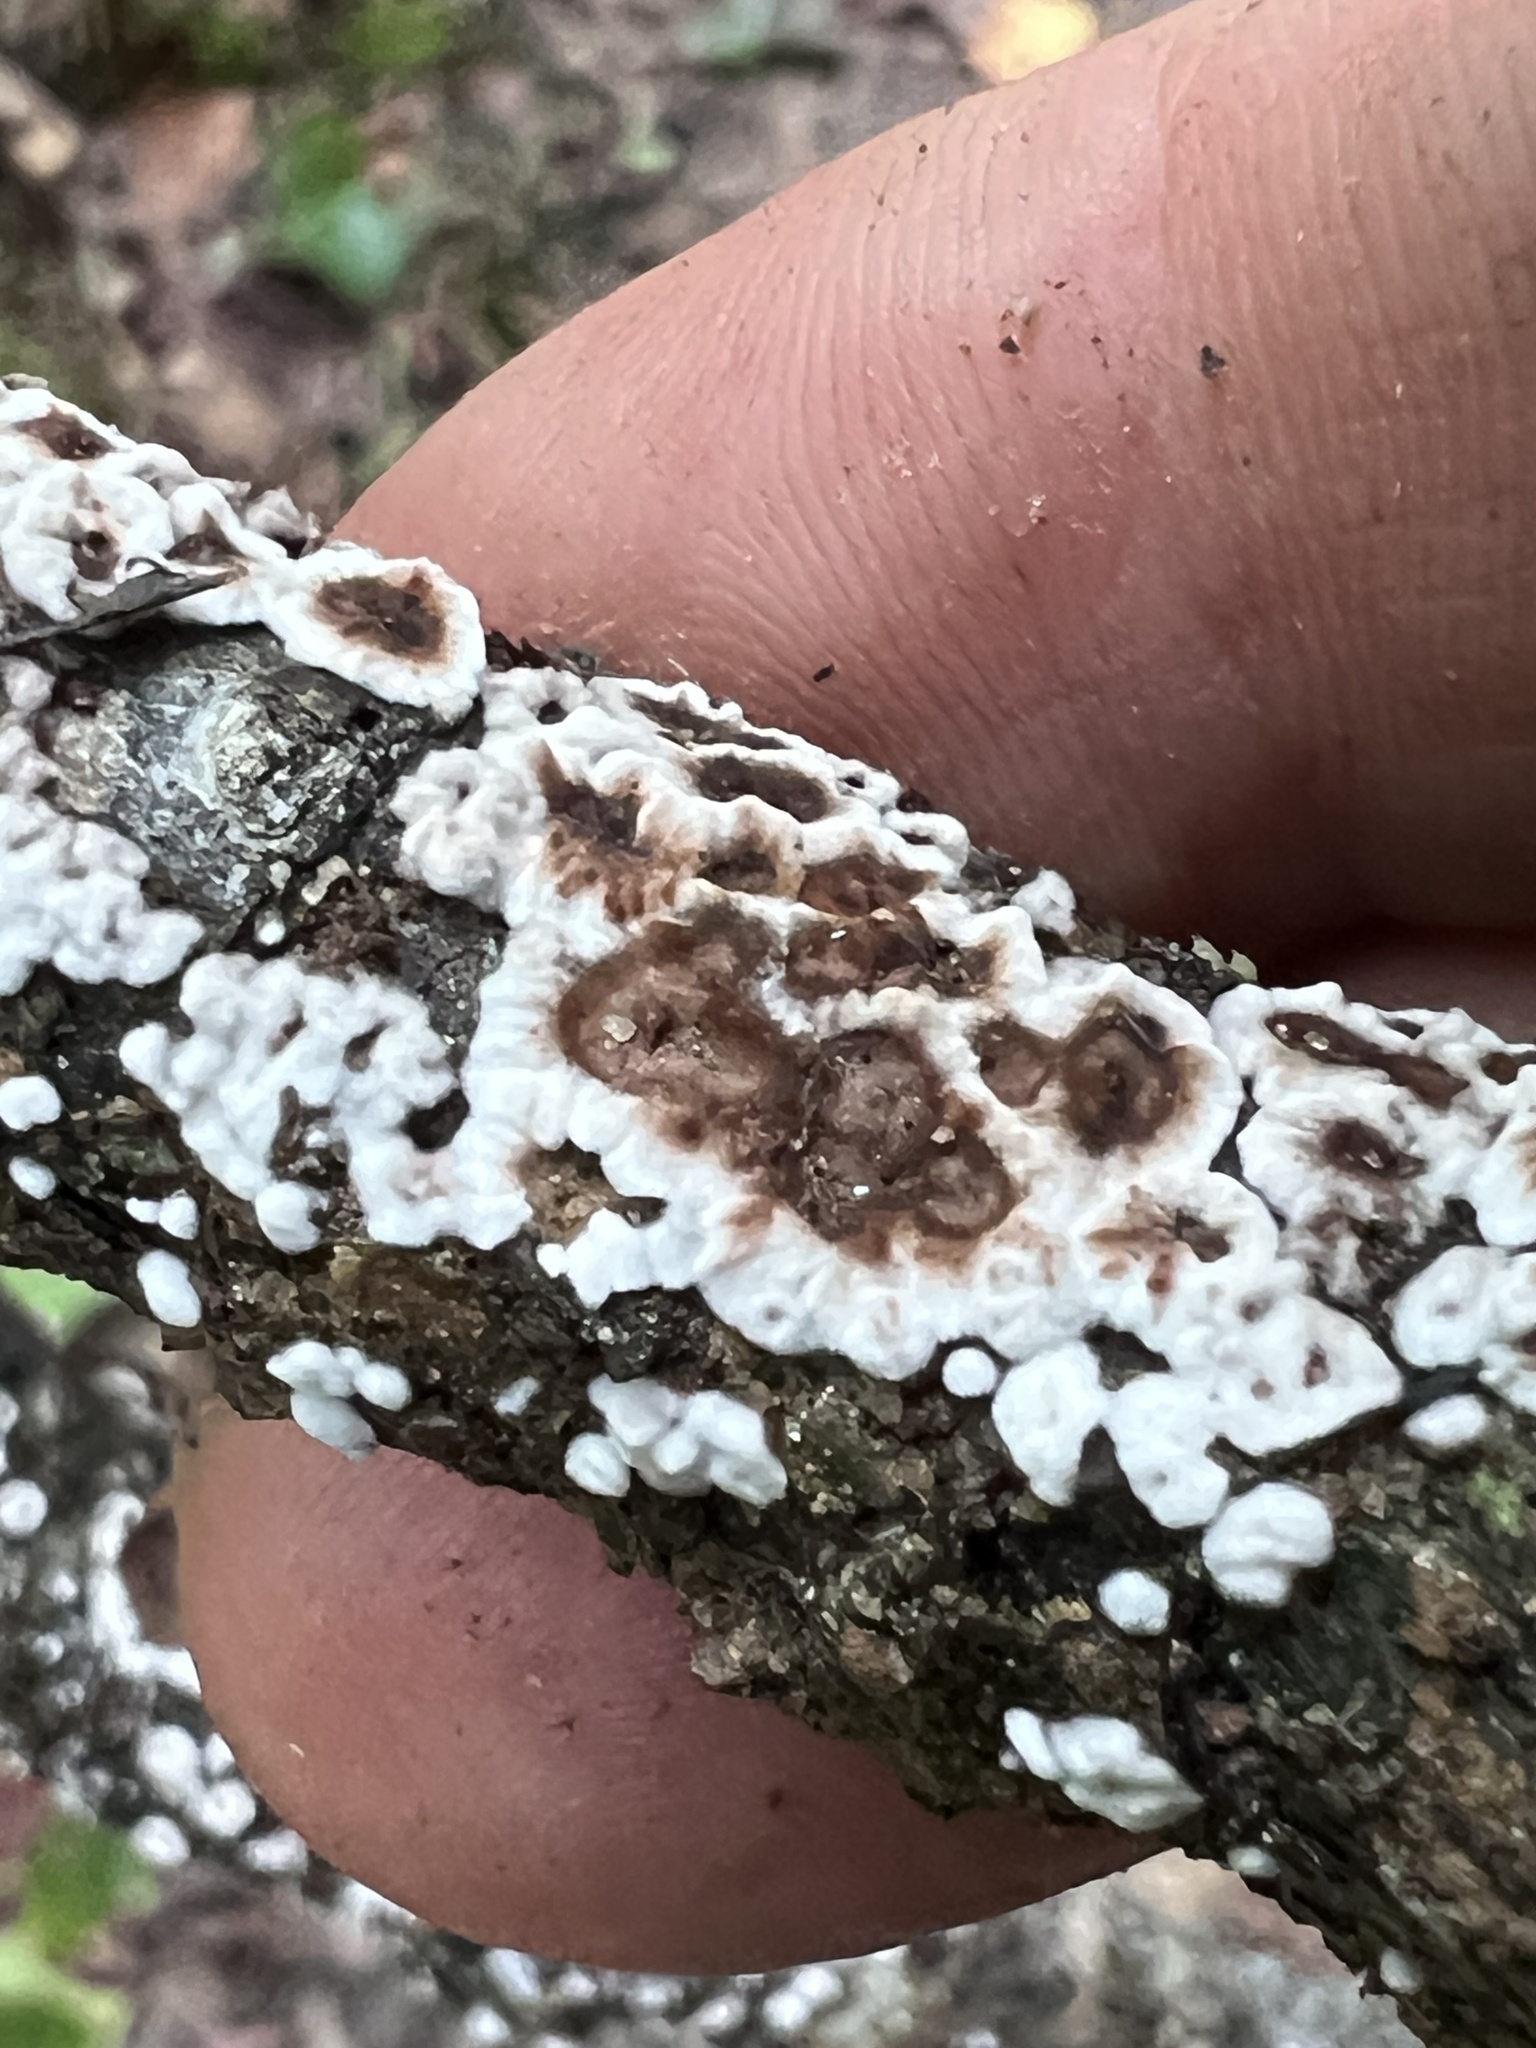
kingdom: Fungi
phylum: Basidiomycota
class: Agaricomycetes
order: Russulales
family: Peniophoraceae
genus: Peniophora
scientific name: Peniophora albobadia
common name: Giraffe spots
